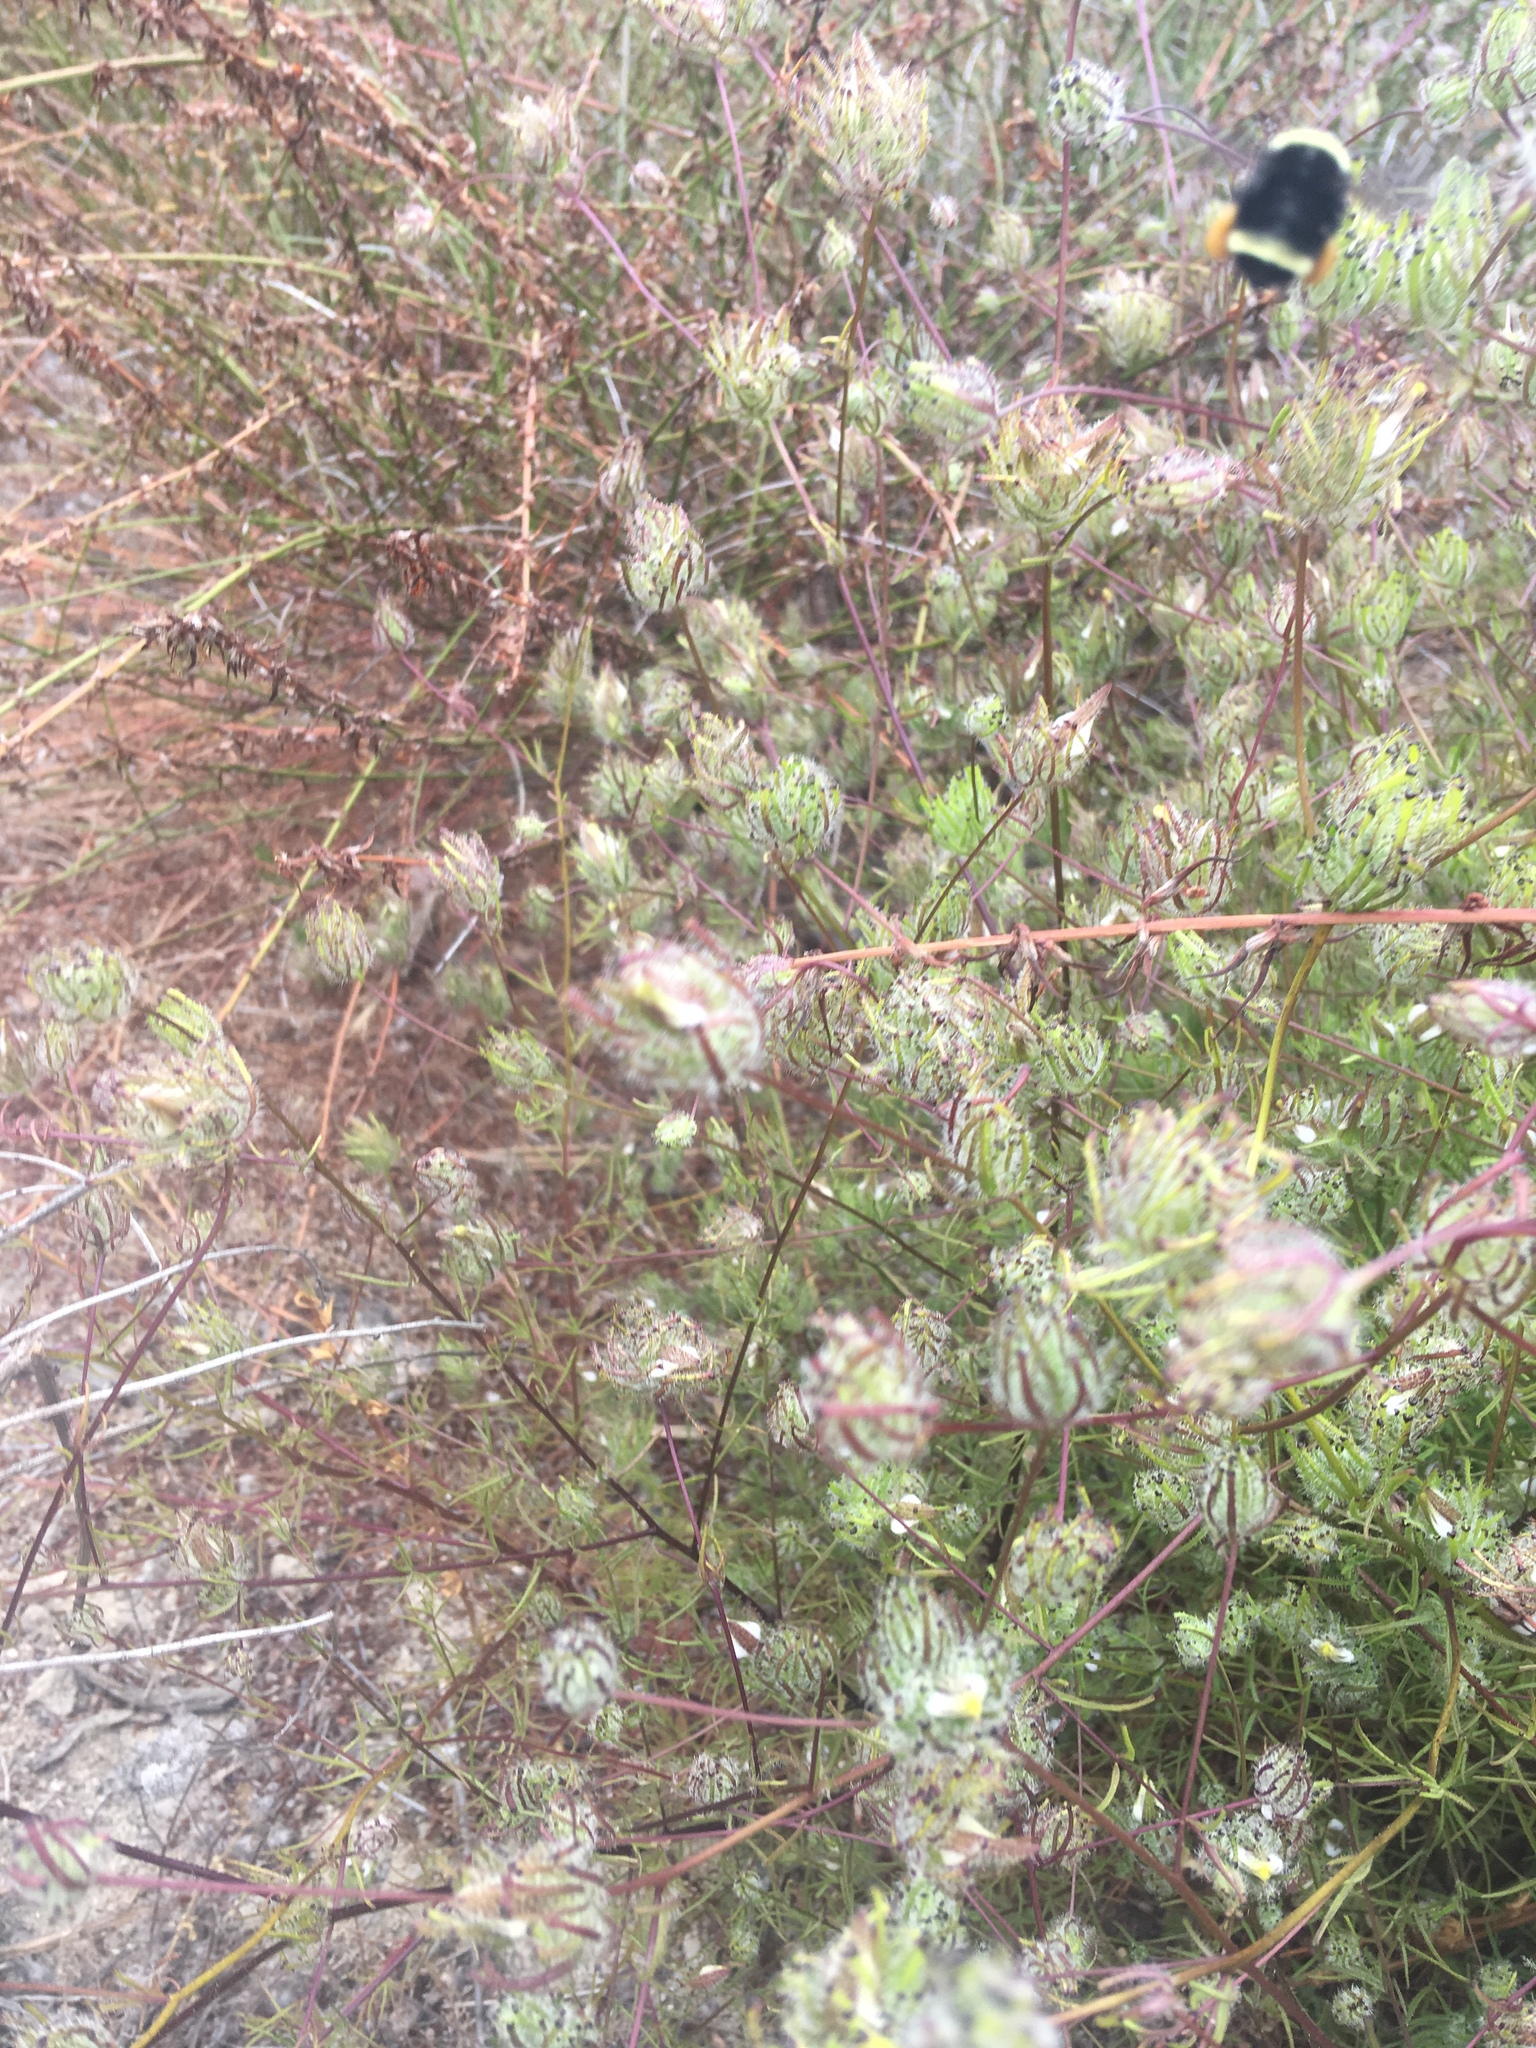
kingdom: Animalia
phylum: Arthropoda
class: Insecta
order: Hymenoptera
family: Apidae
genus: Bombus
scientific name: Bombus vosnesenskii
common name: Vosnesensky bumble bee
